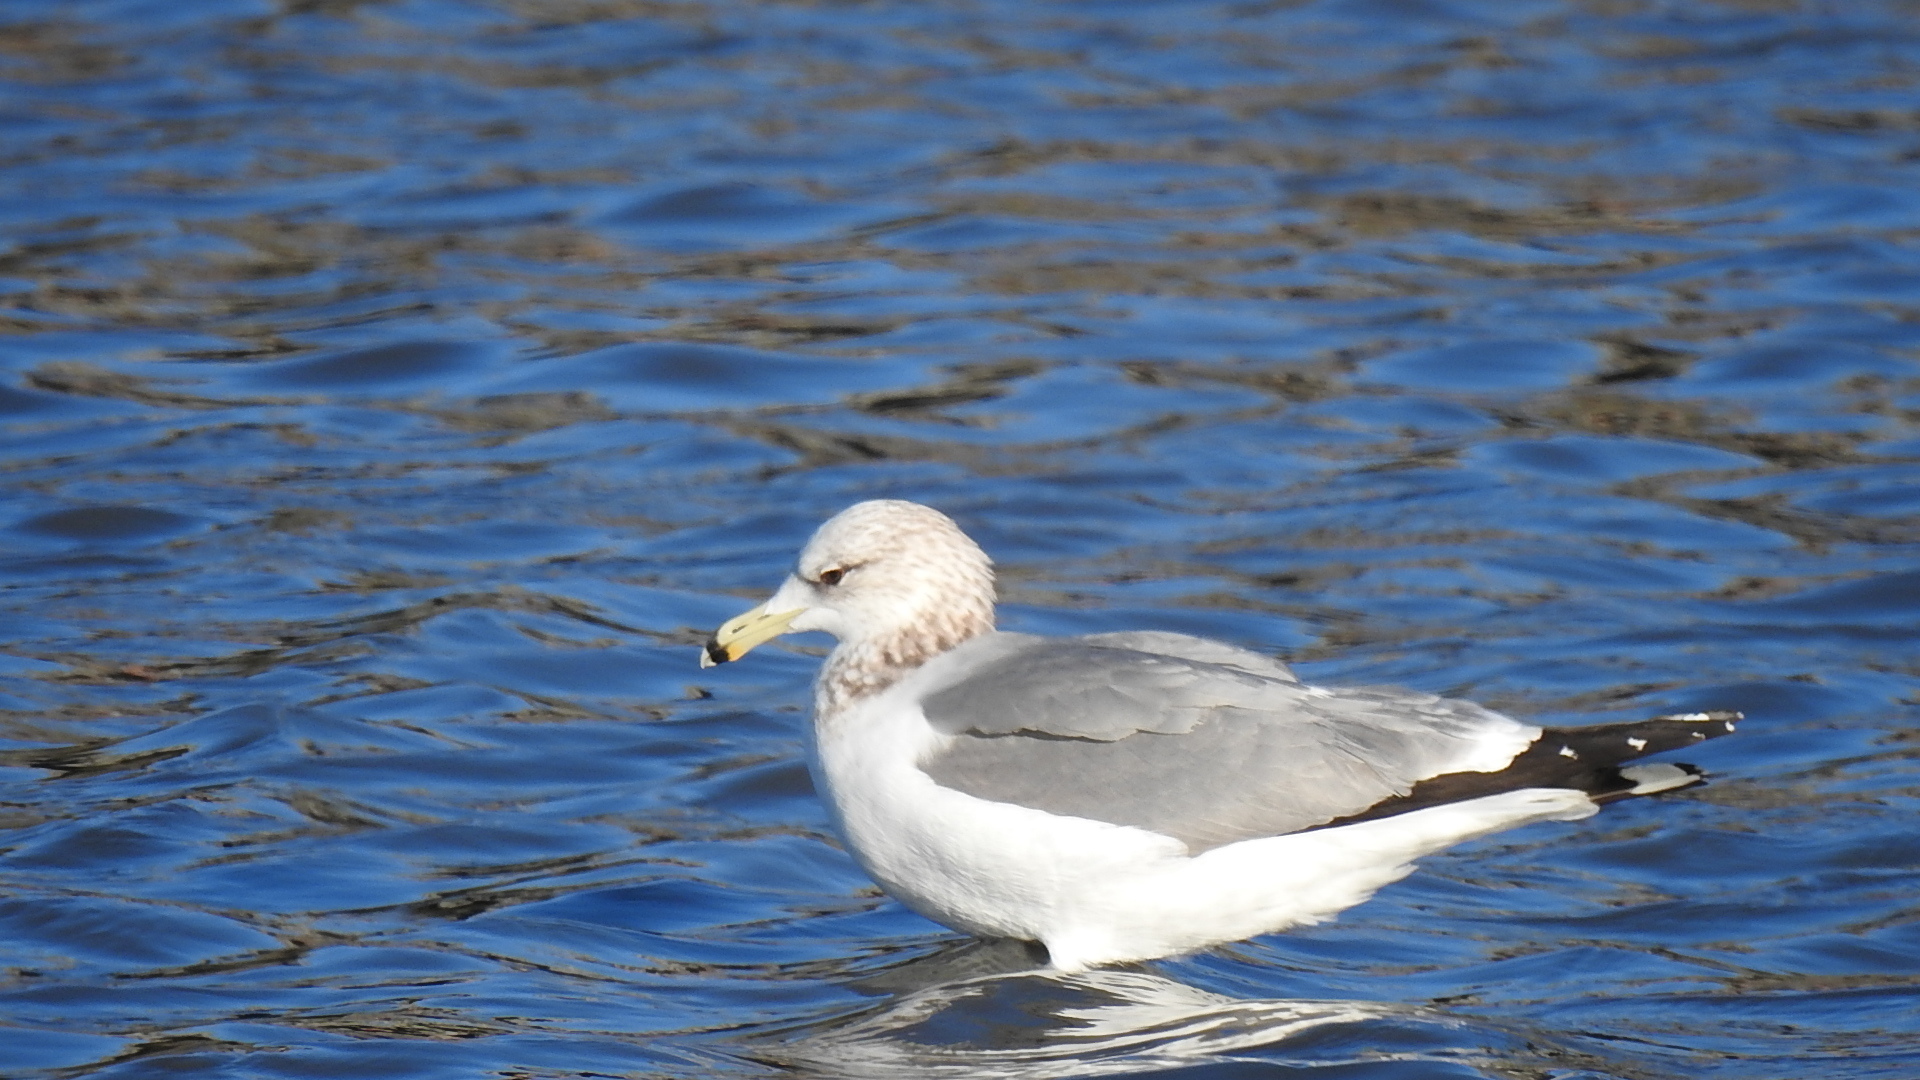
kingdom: Animalia
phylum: Chordata
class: Aves
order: Charadriiformes
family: Laridae
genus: Larus
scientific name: Larus californicus
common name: California gull
